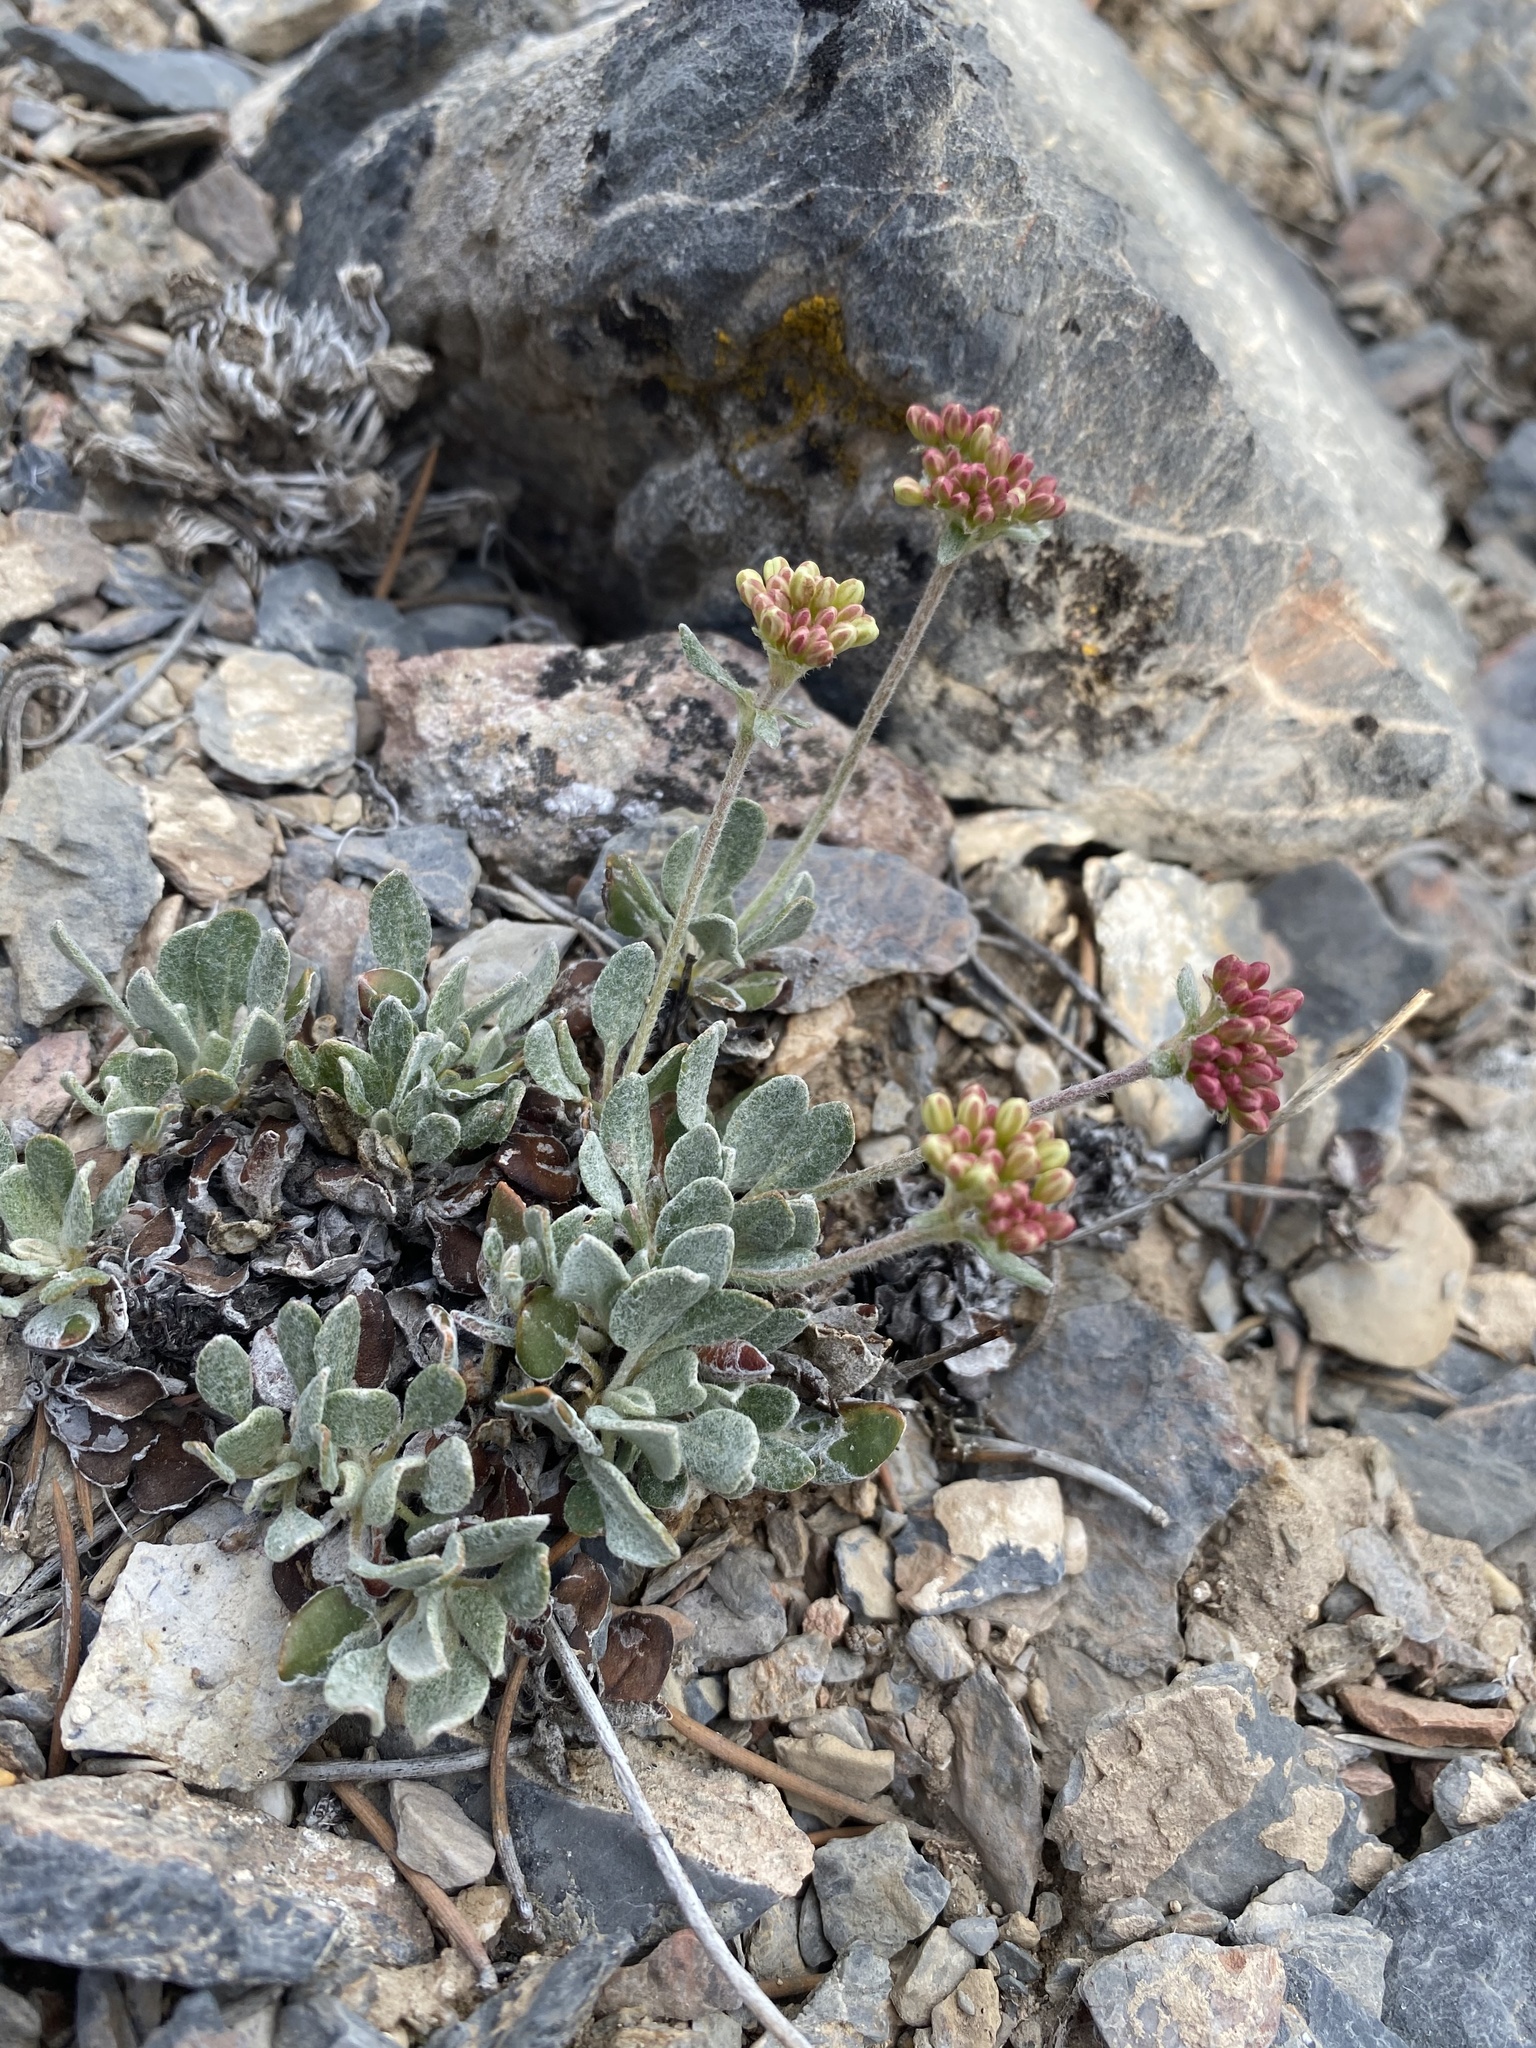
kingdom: Plantae
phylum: Tracheophyta
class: Magnoliopsida
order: Caryophyllales
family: Polygonaceae
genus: Eriogonum
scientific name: Eriogonum umbellatum
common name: Sulfur-buckwheat
